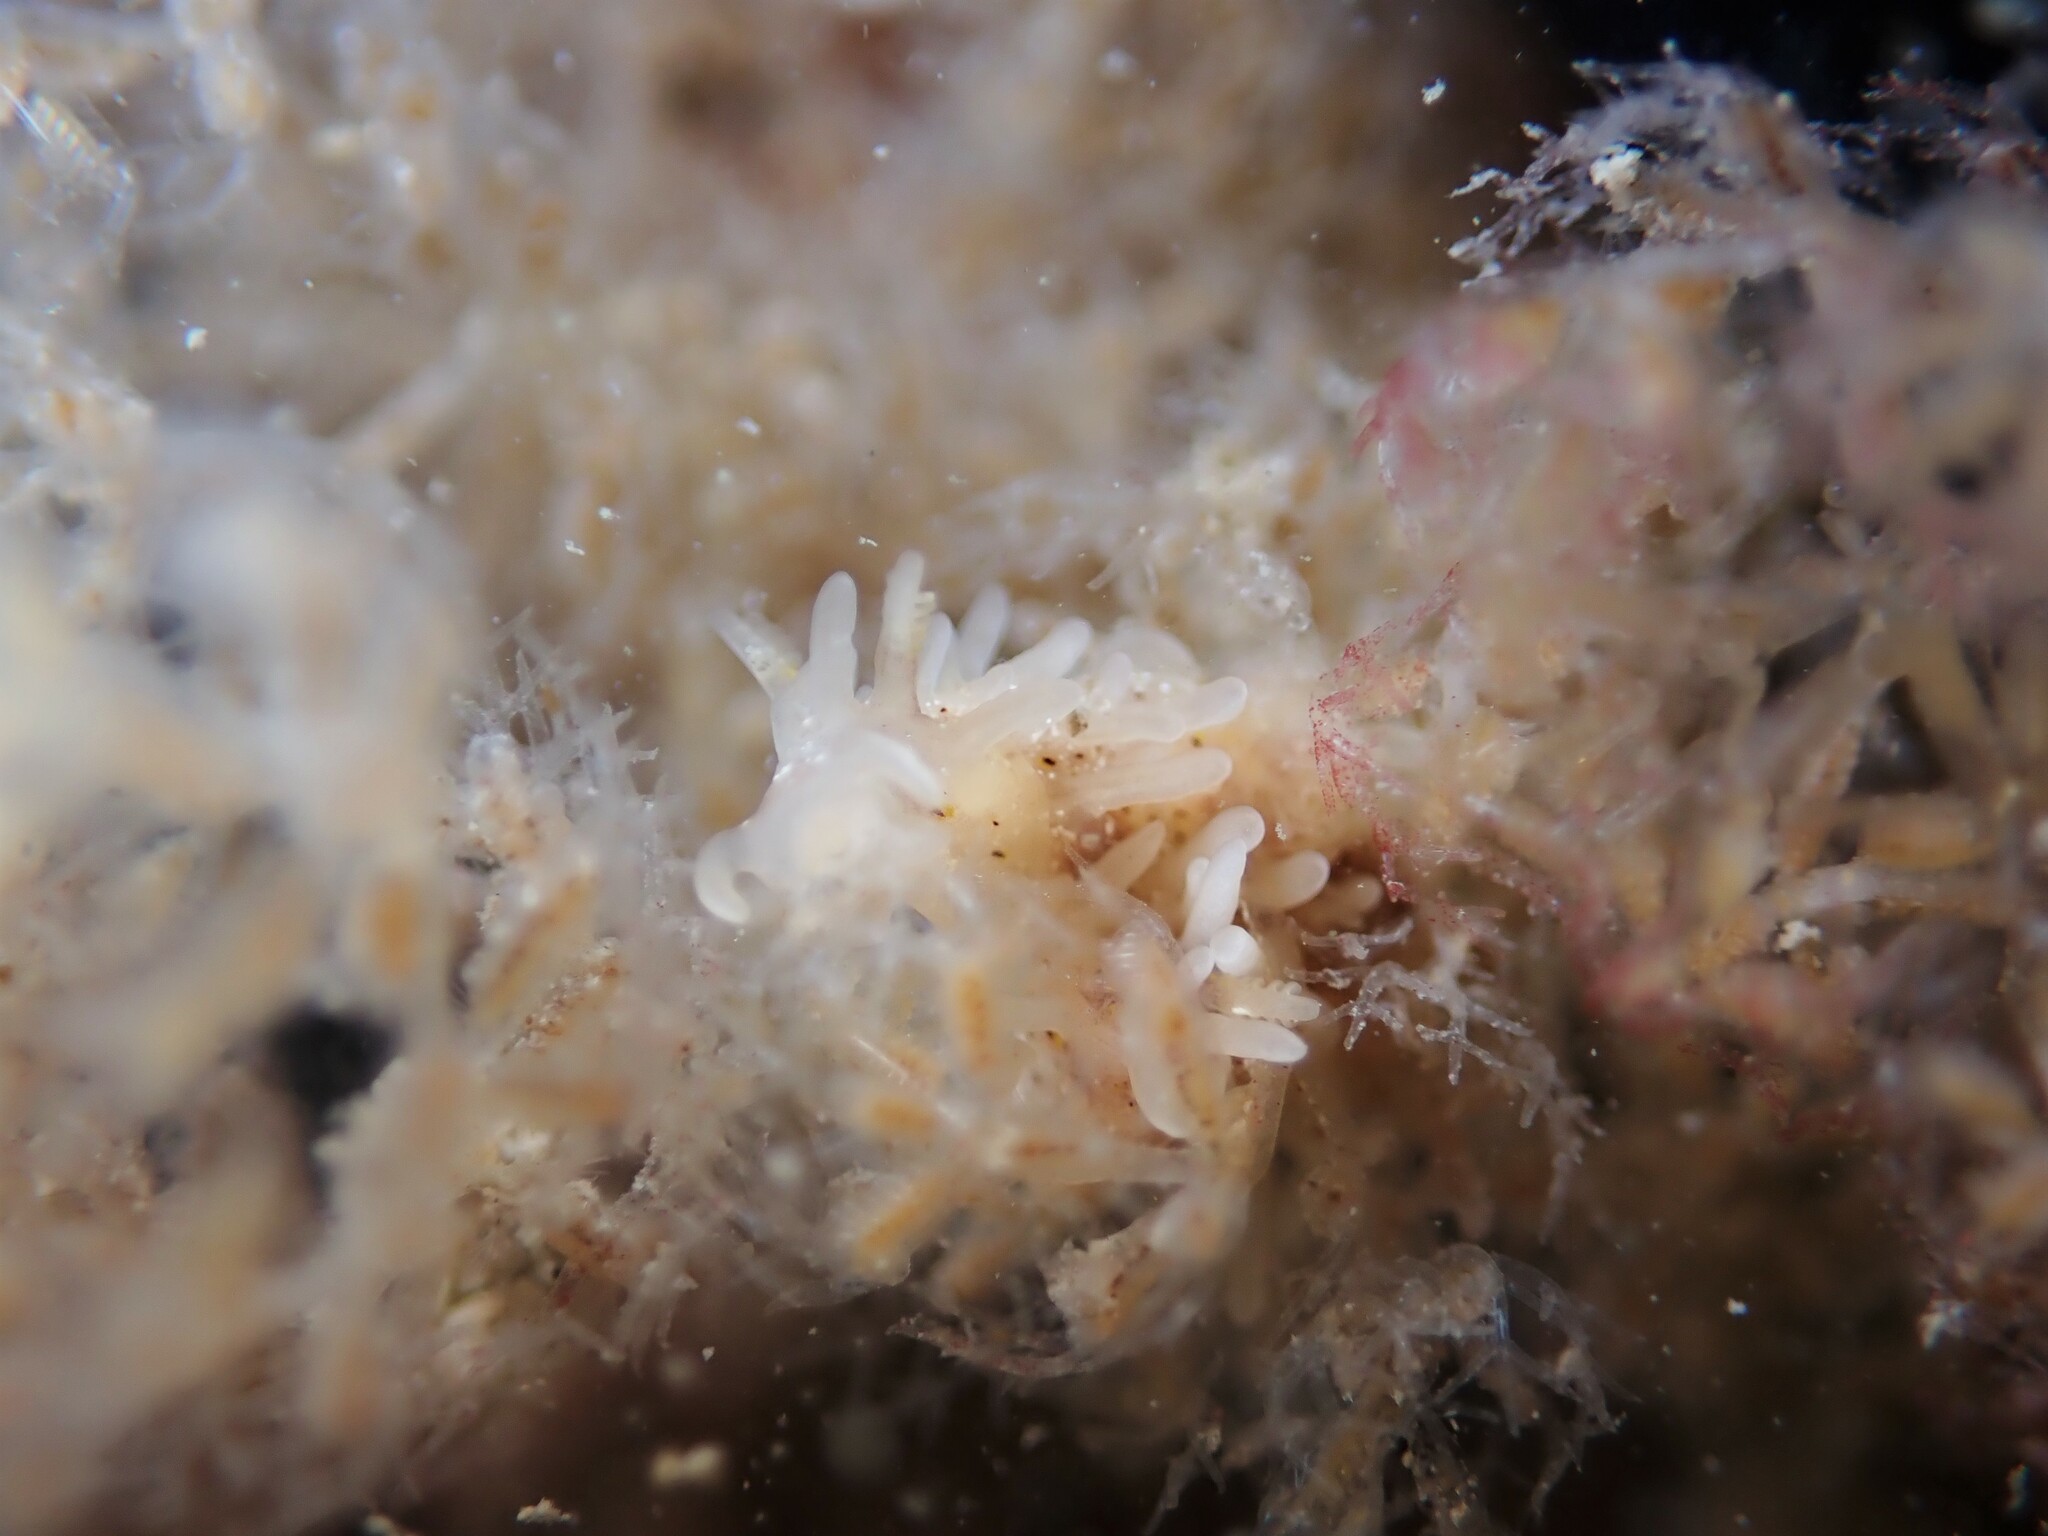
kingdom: Animalia
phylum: Mollusca
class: Gastropoda
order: Nudibranchia
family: Goniodorididae
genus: Okenia
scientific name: Okenia
